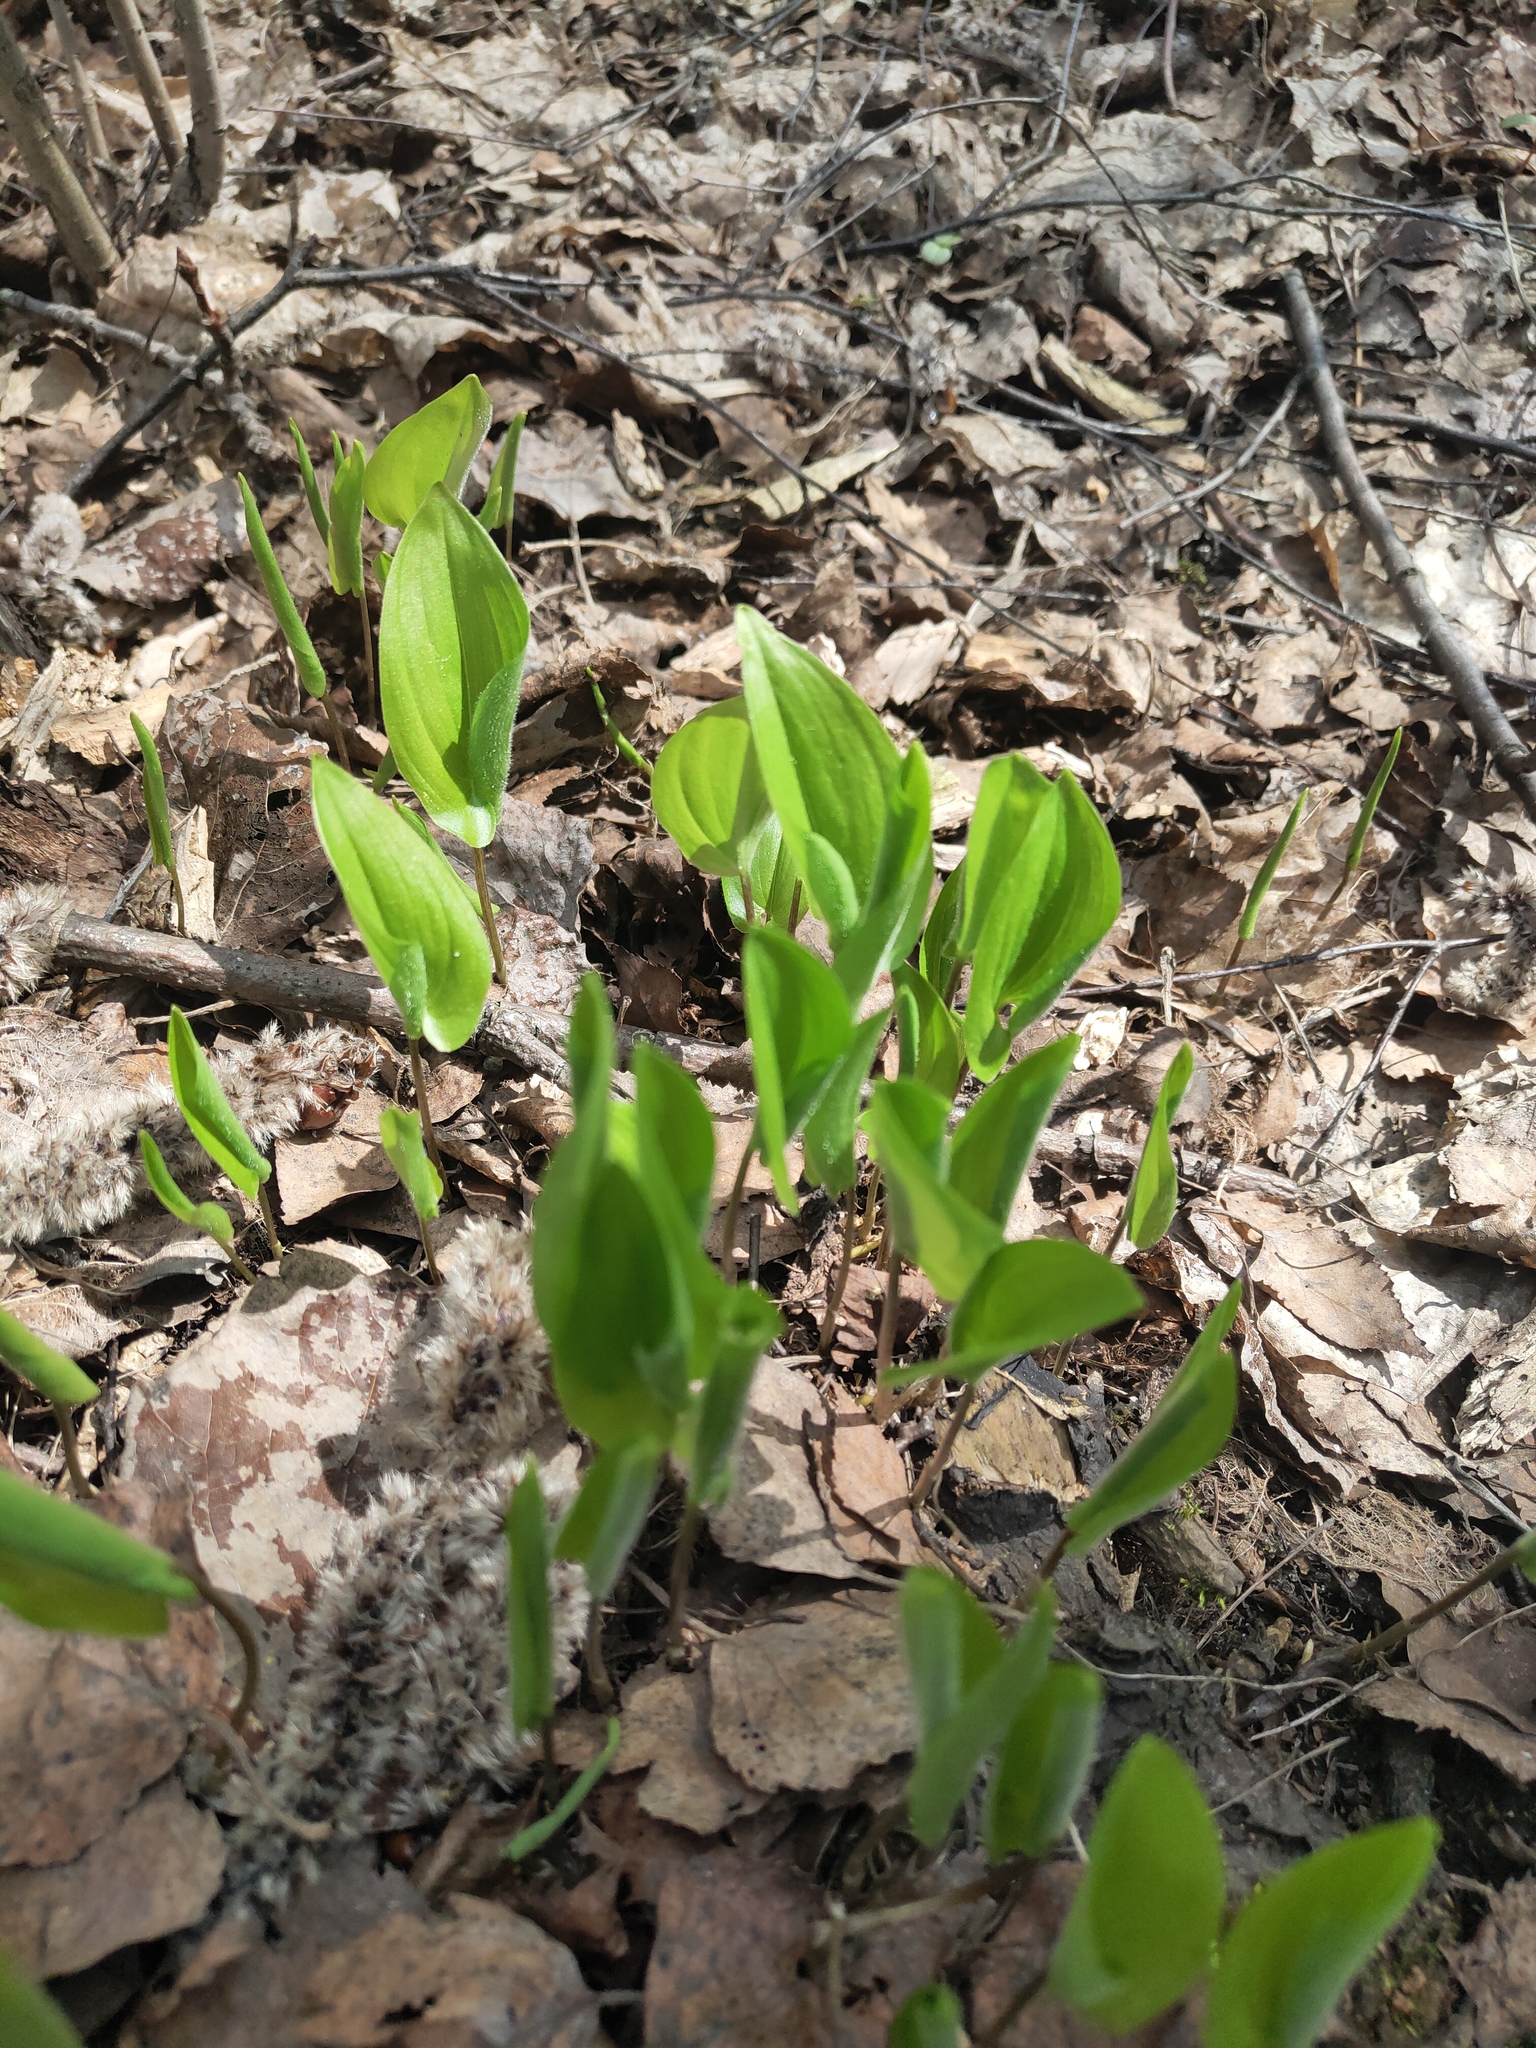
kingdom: Plantae
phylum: Tracheophyta
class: Liliopsida
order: Asparagales
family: Asparagaceae
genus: Maianthemum
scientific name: Maianthemum bifolium
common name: May lily
